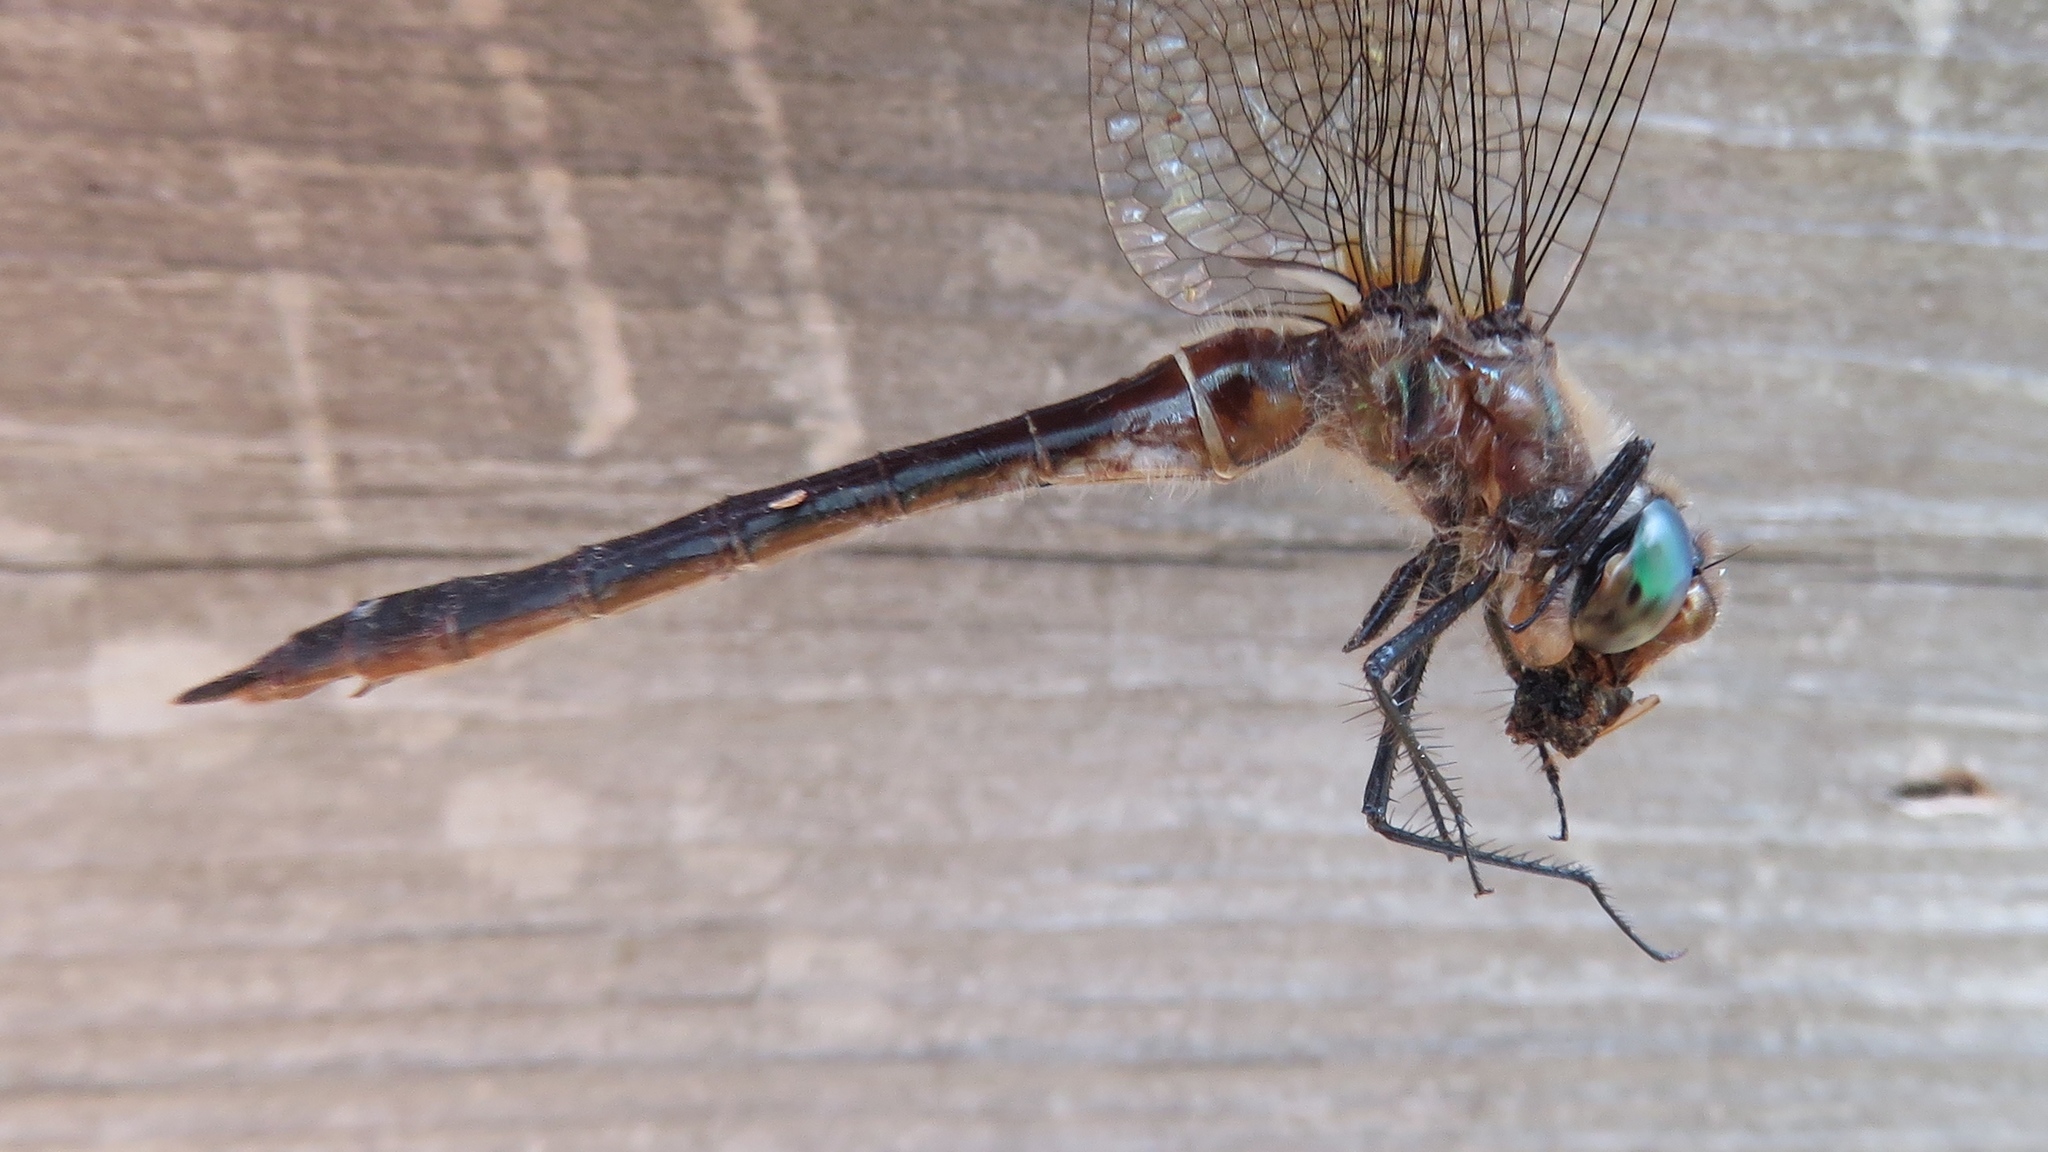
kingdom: Animalia
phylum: Arthropoda
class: Insecta
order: Odonata
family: Corduliidae
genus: Cordulia
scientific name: Cordulia shurtleffii
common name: American emerald
